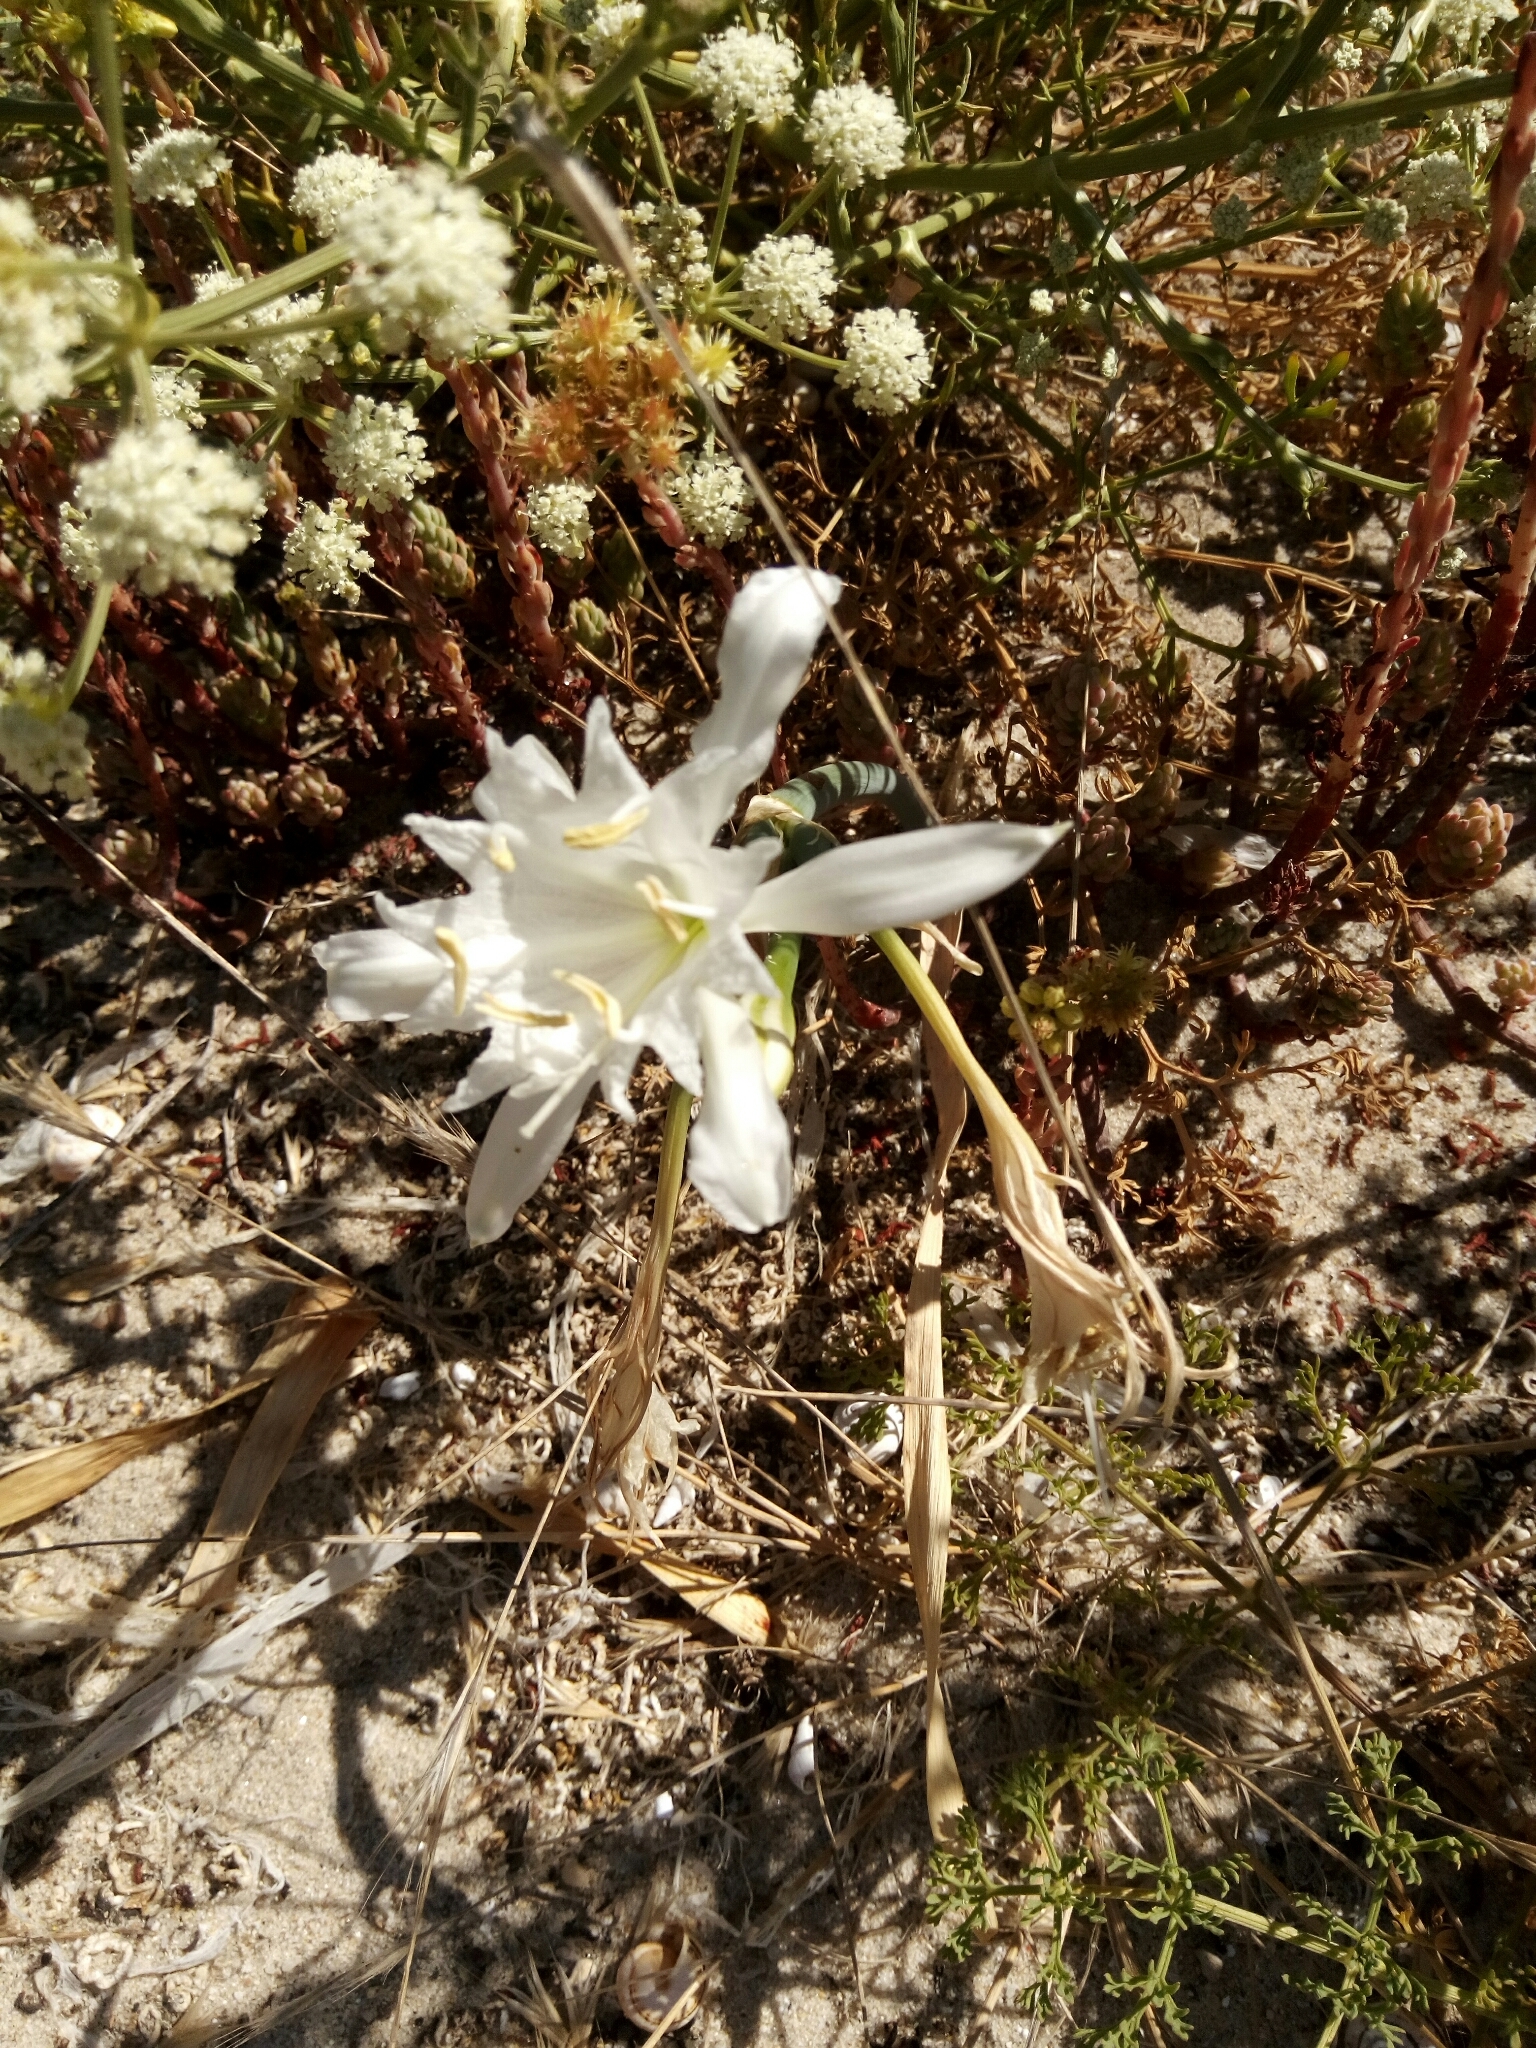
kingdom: Plantae
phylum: Tracheophyta
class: Liliopsida
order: Asparagales
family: Amaryllidaceae
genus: Pancratium
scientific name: Pancratium maritimum
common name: Sea-daffodil
